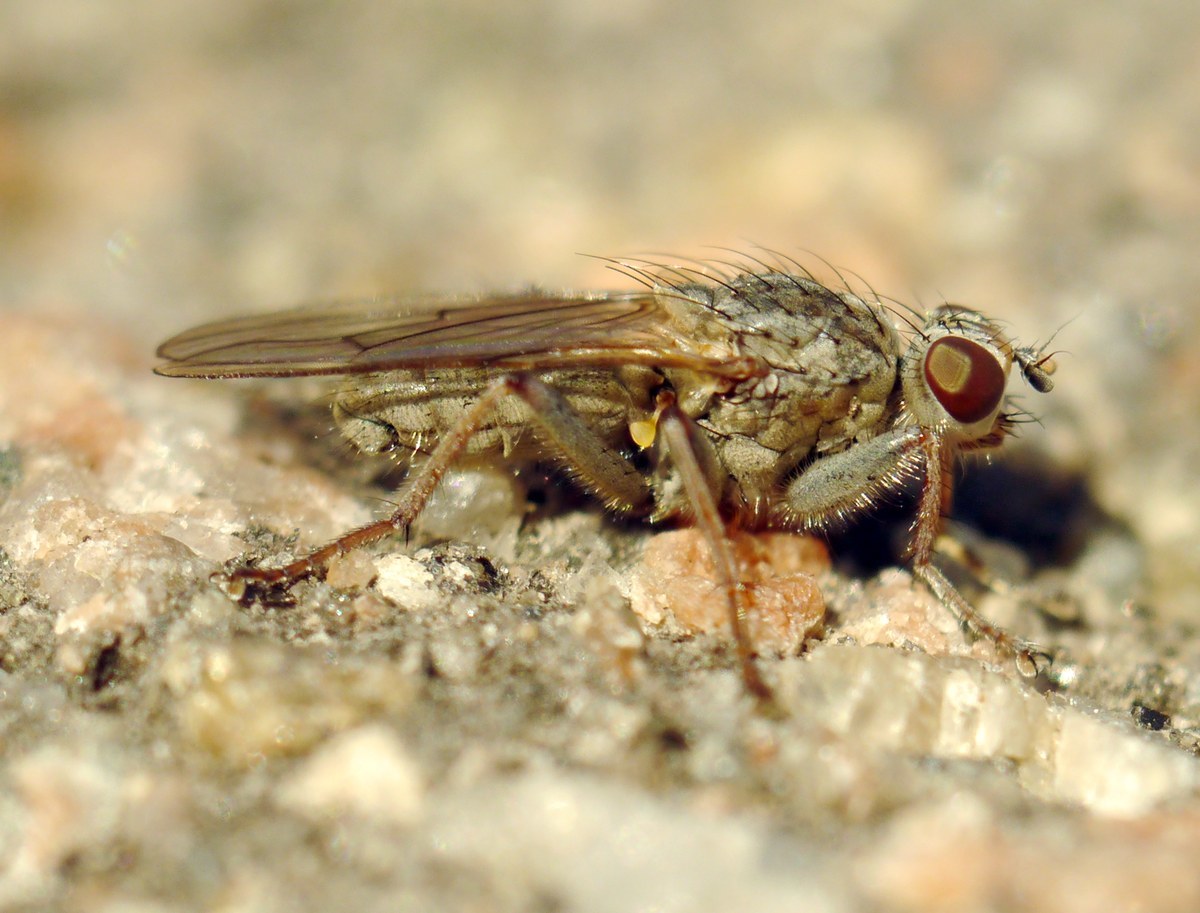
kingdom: Animalia
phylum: Arthropoda
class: Insecta
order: Diptera
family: Scathophagidae
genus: Scathophaga
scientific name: Scathophaga stercoraria
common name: Yellow dung fly
